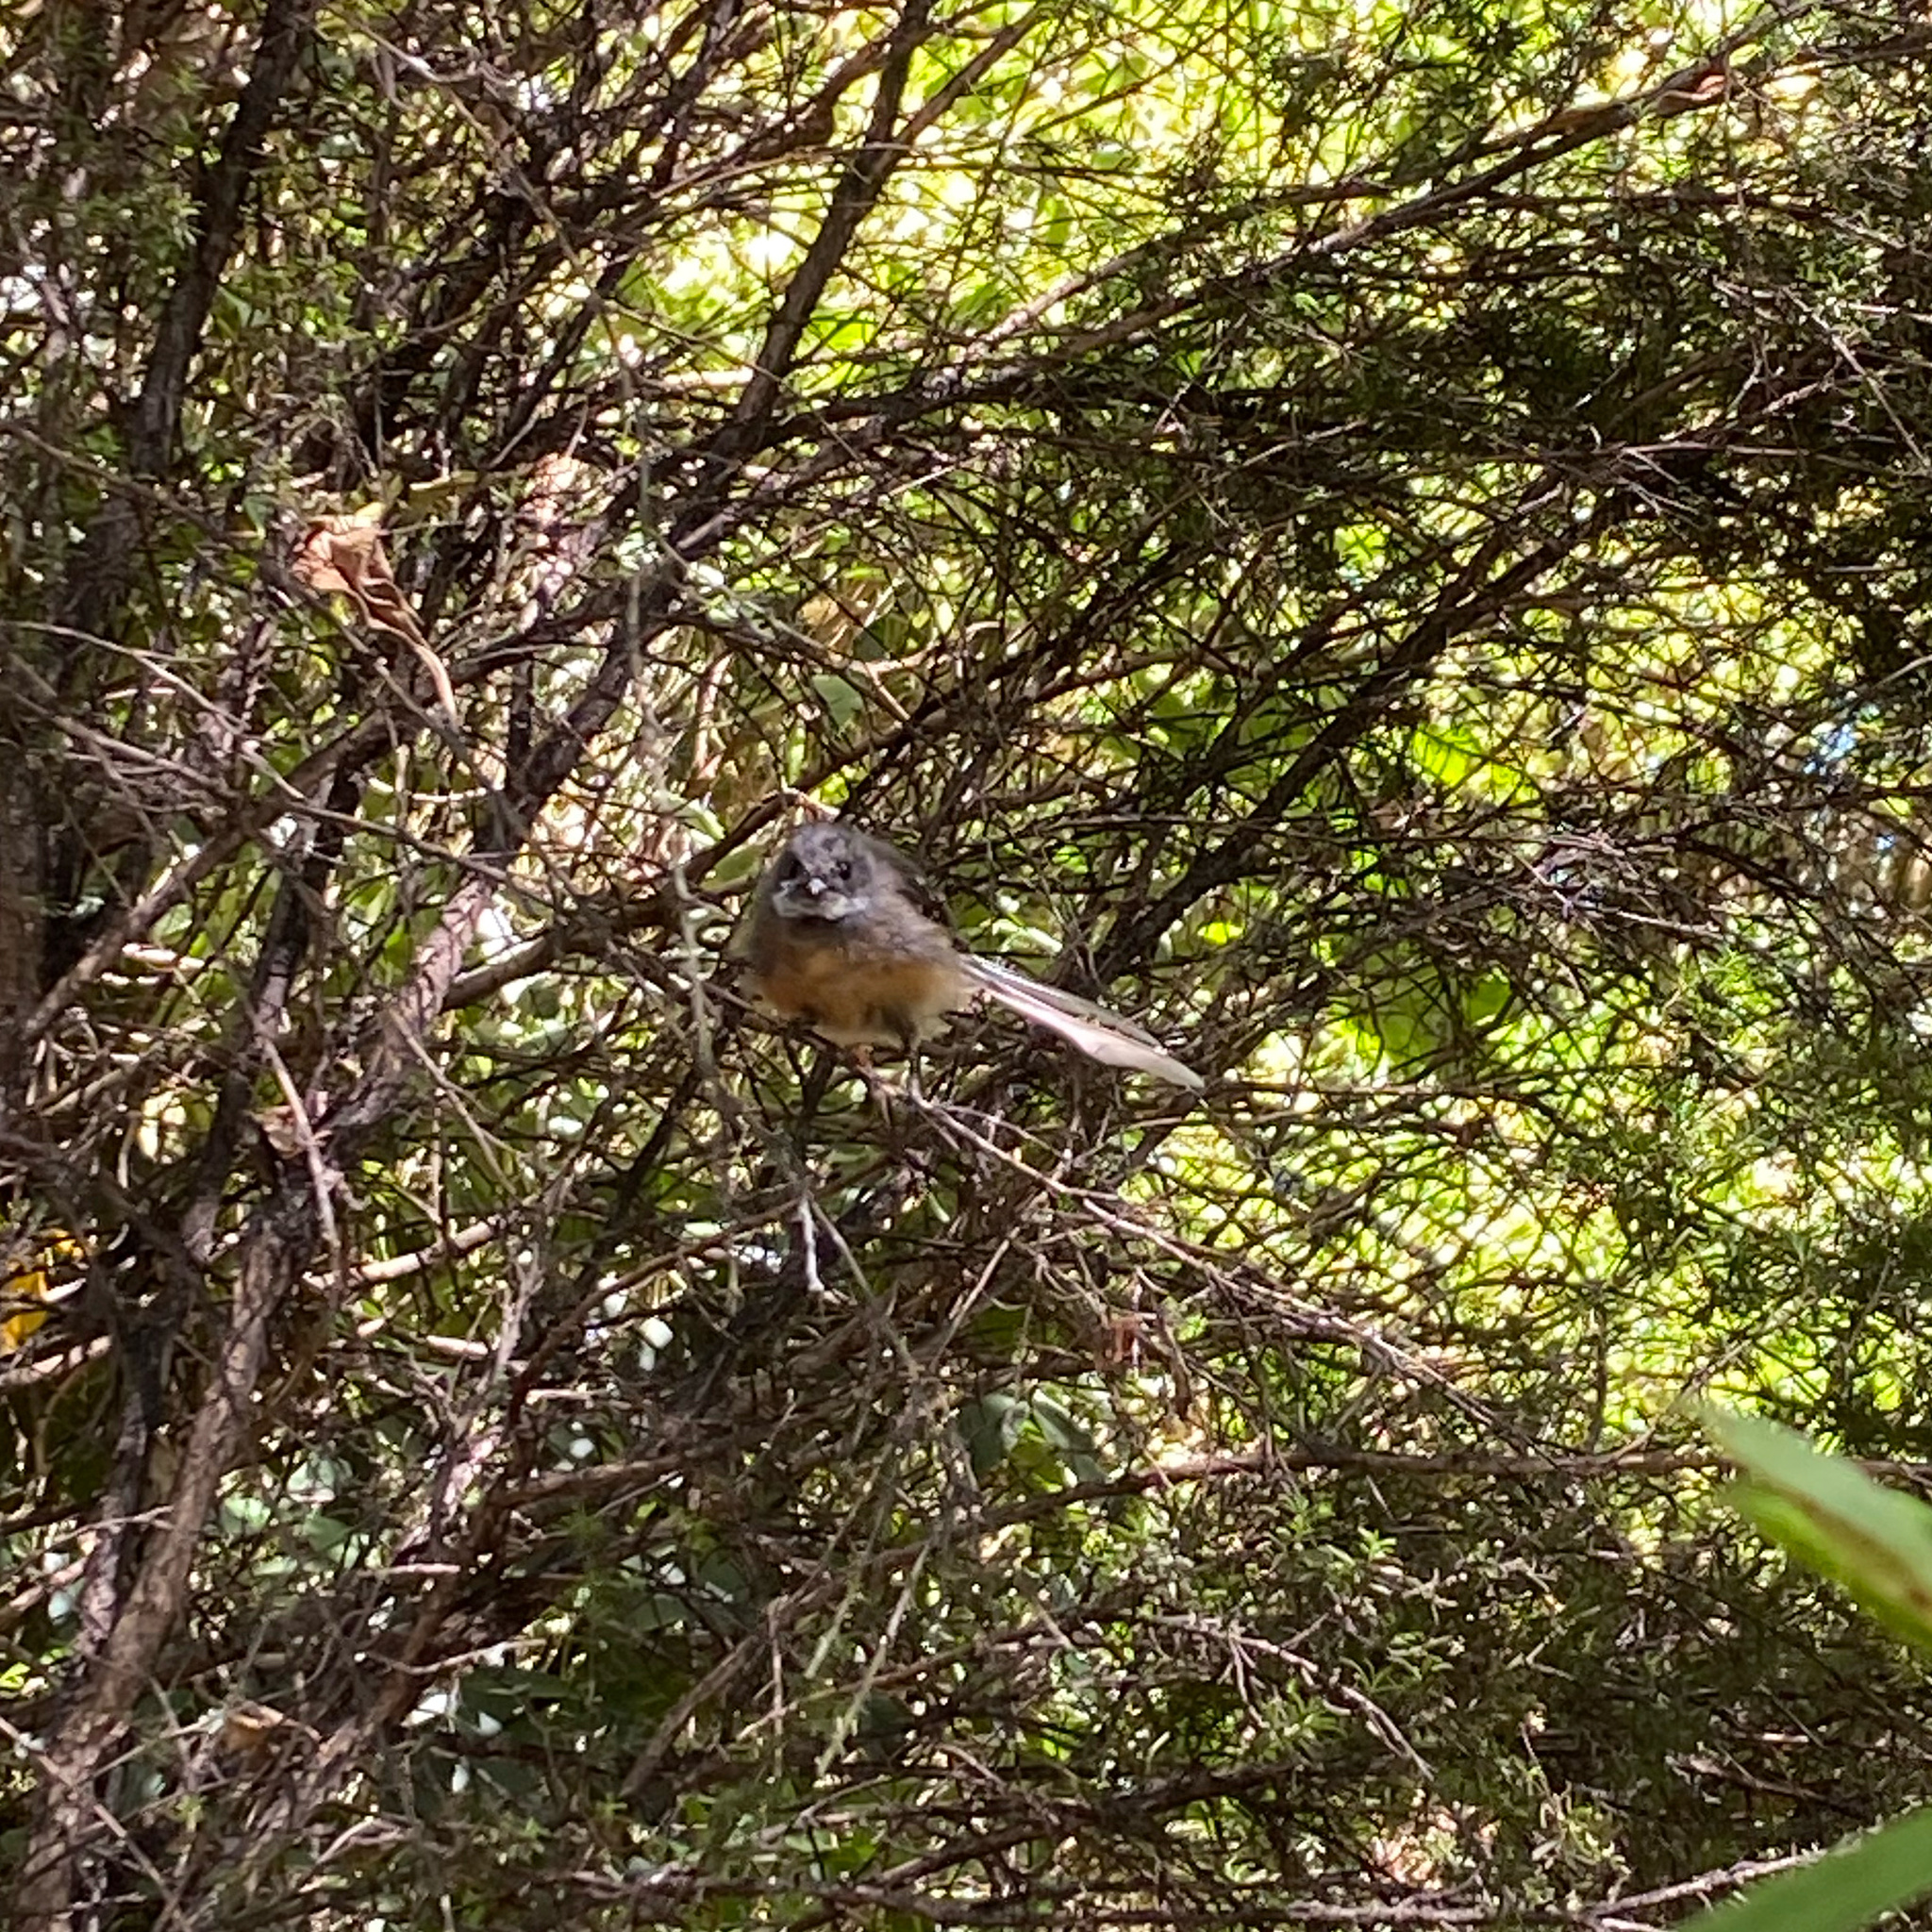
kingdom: Animalia
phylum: Chordata
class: Aves
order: Passeriformes
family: Rhipiduridae
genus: Rhipidura
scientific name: Rhipidura fuliginosa
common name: New zealand fantail
